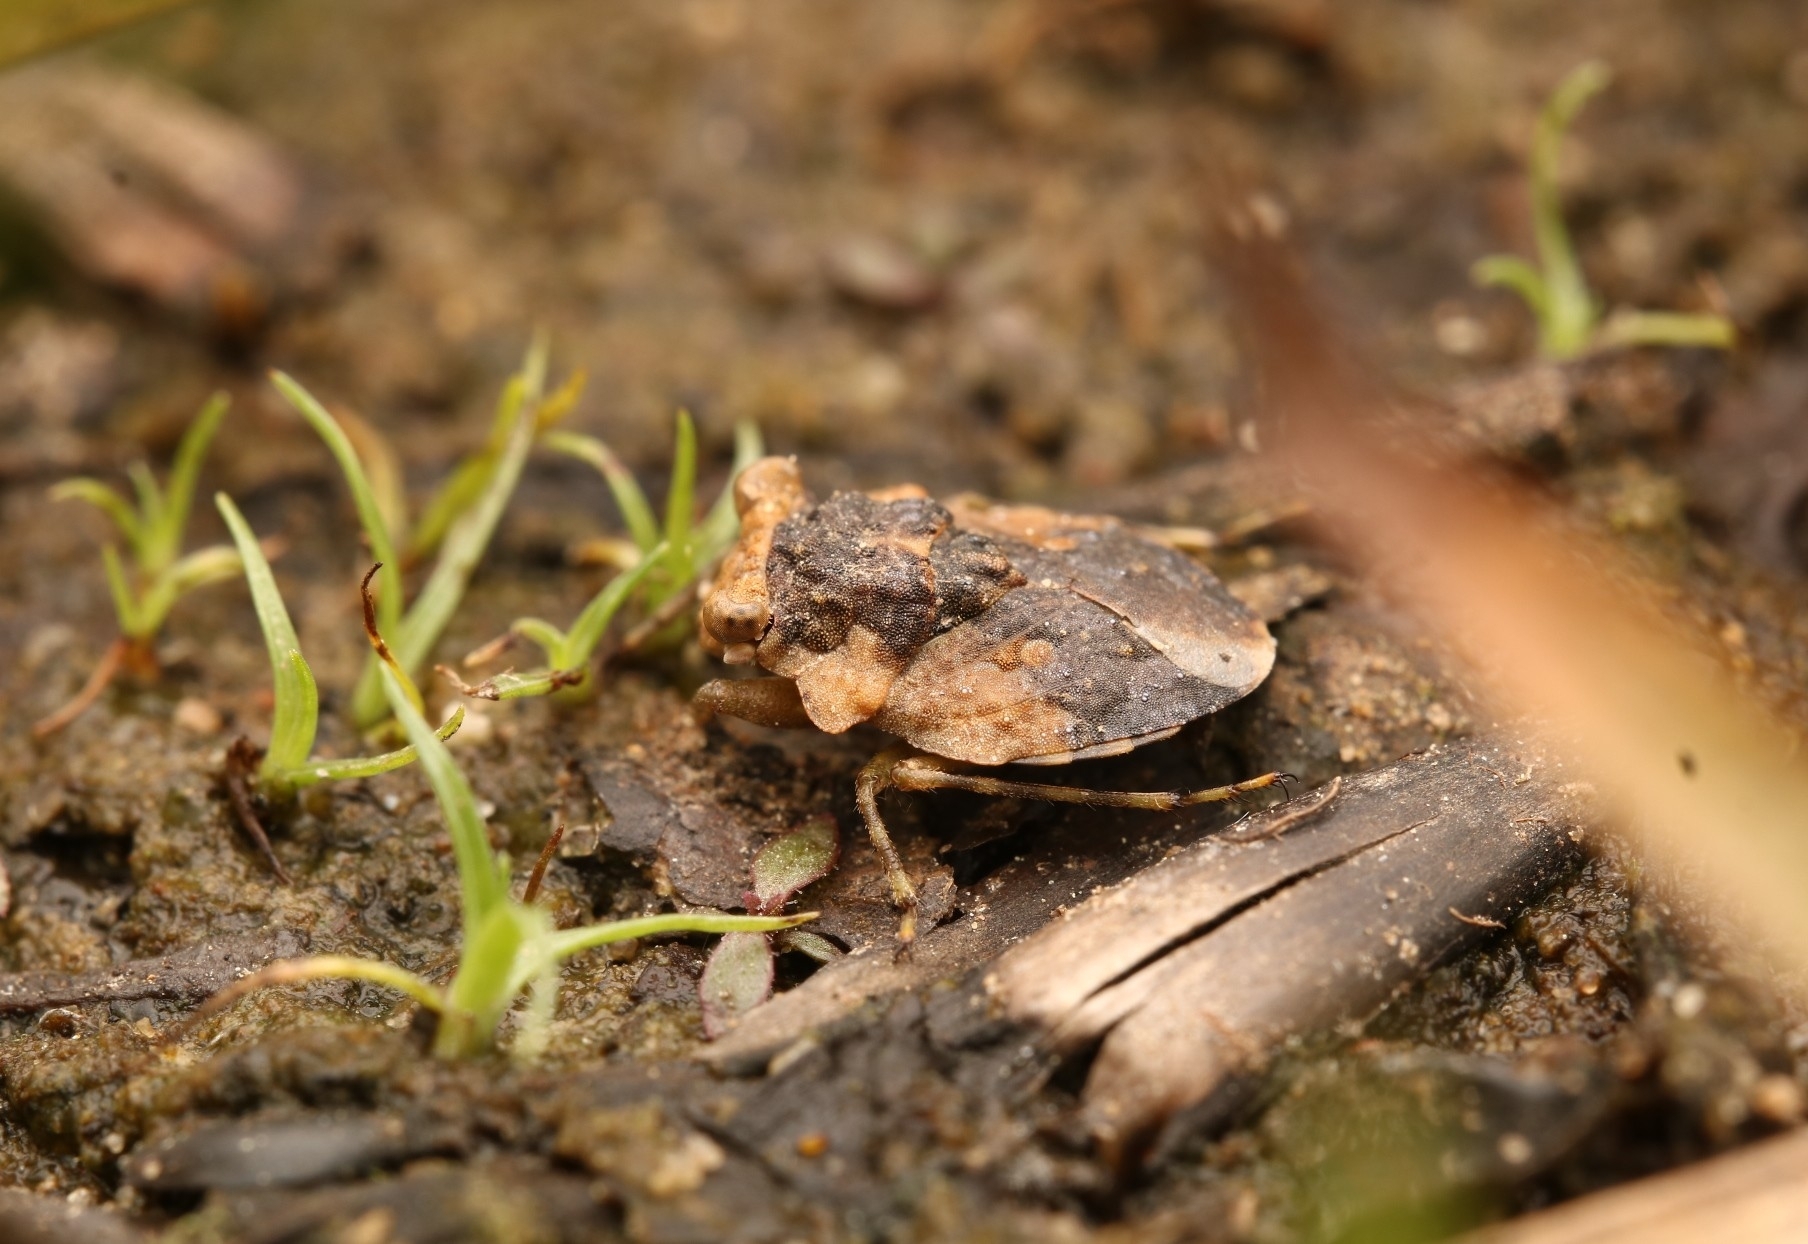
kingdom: Animalia
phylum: Arthropoda
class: Insecta
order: Hemiptera
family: Gelastocoridae
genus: Gelastocoris
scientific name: Gelastocoris oculatus
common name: Toad bug
